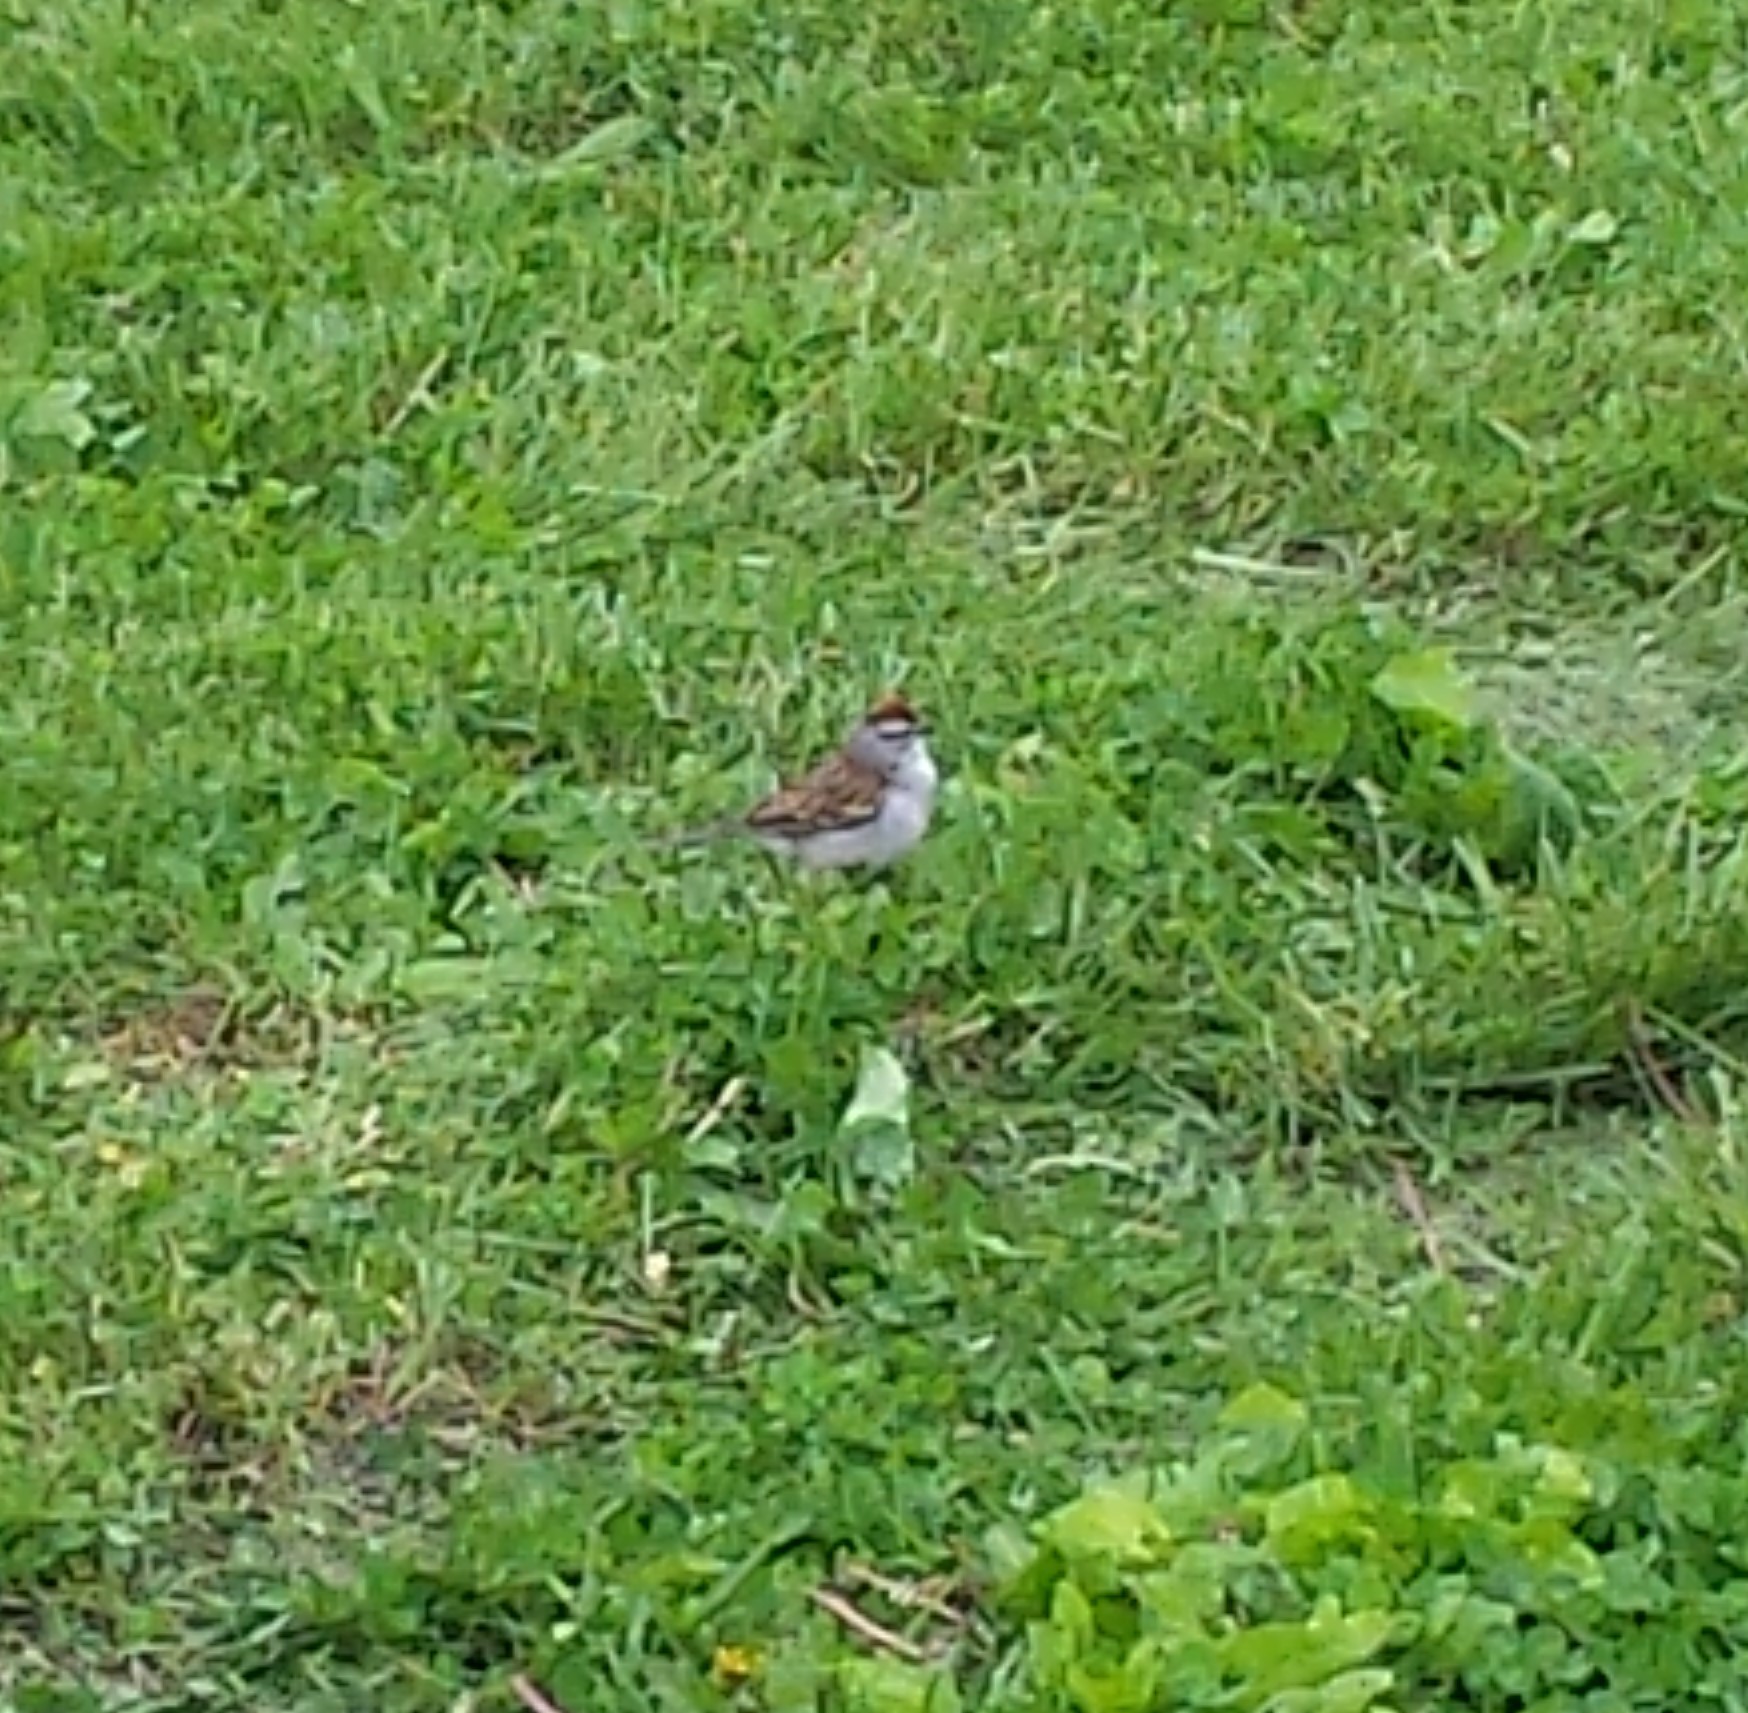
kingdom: Animalia
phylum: Chordata
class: Aves
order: Passeriformes
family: Passerellidae
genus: Spizella
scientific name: Spizella passerina
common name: Chipping sparrow
